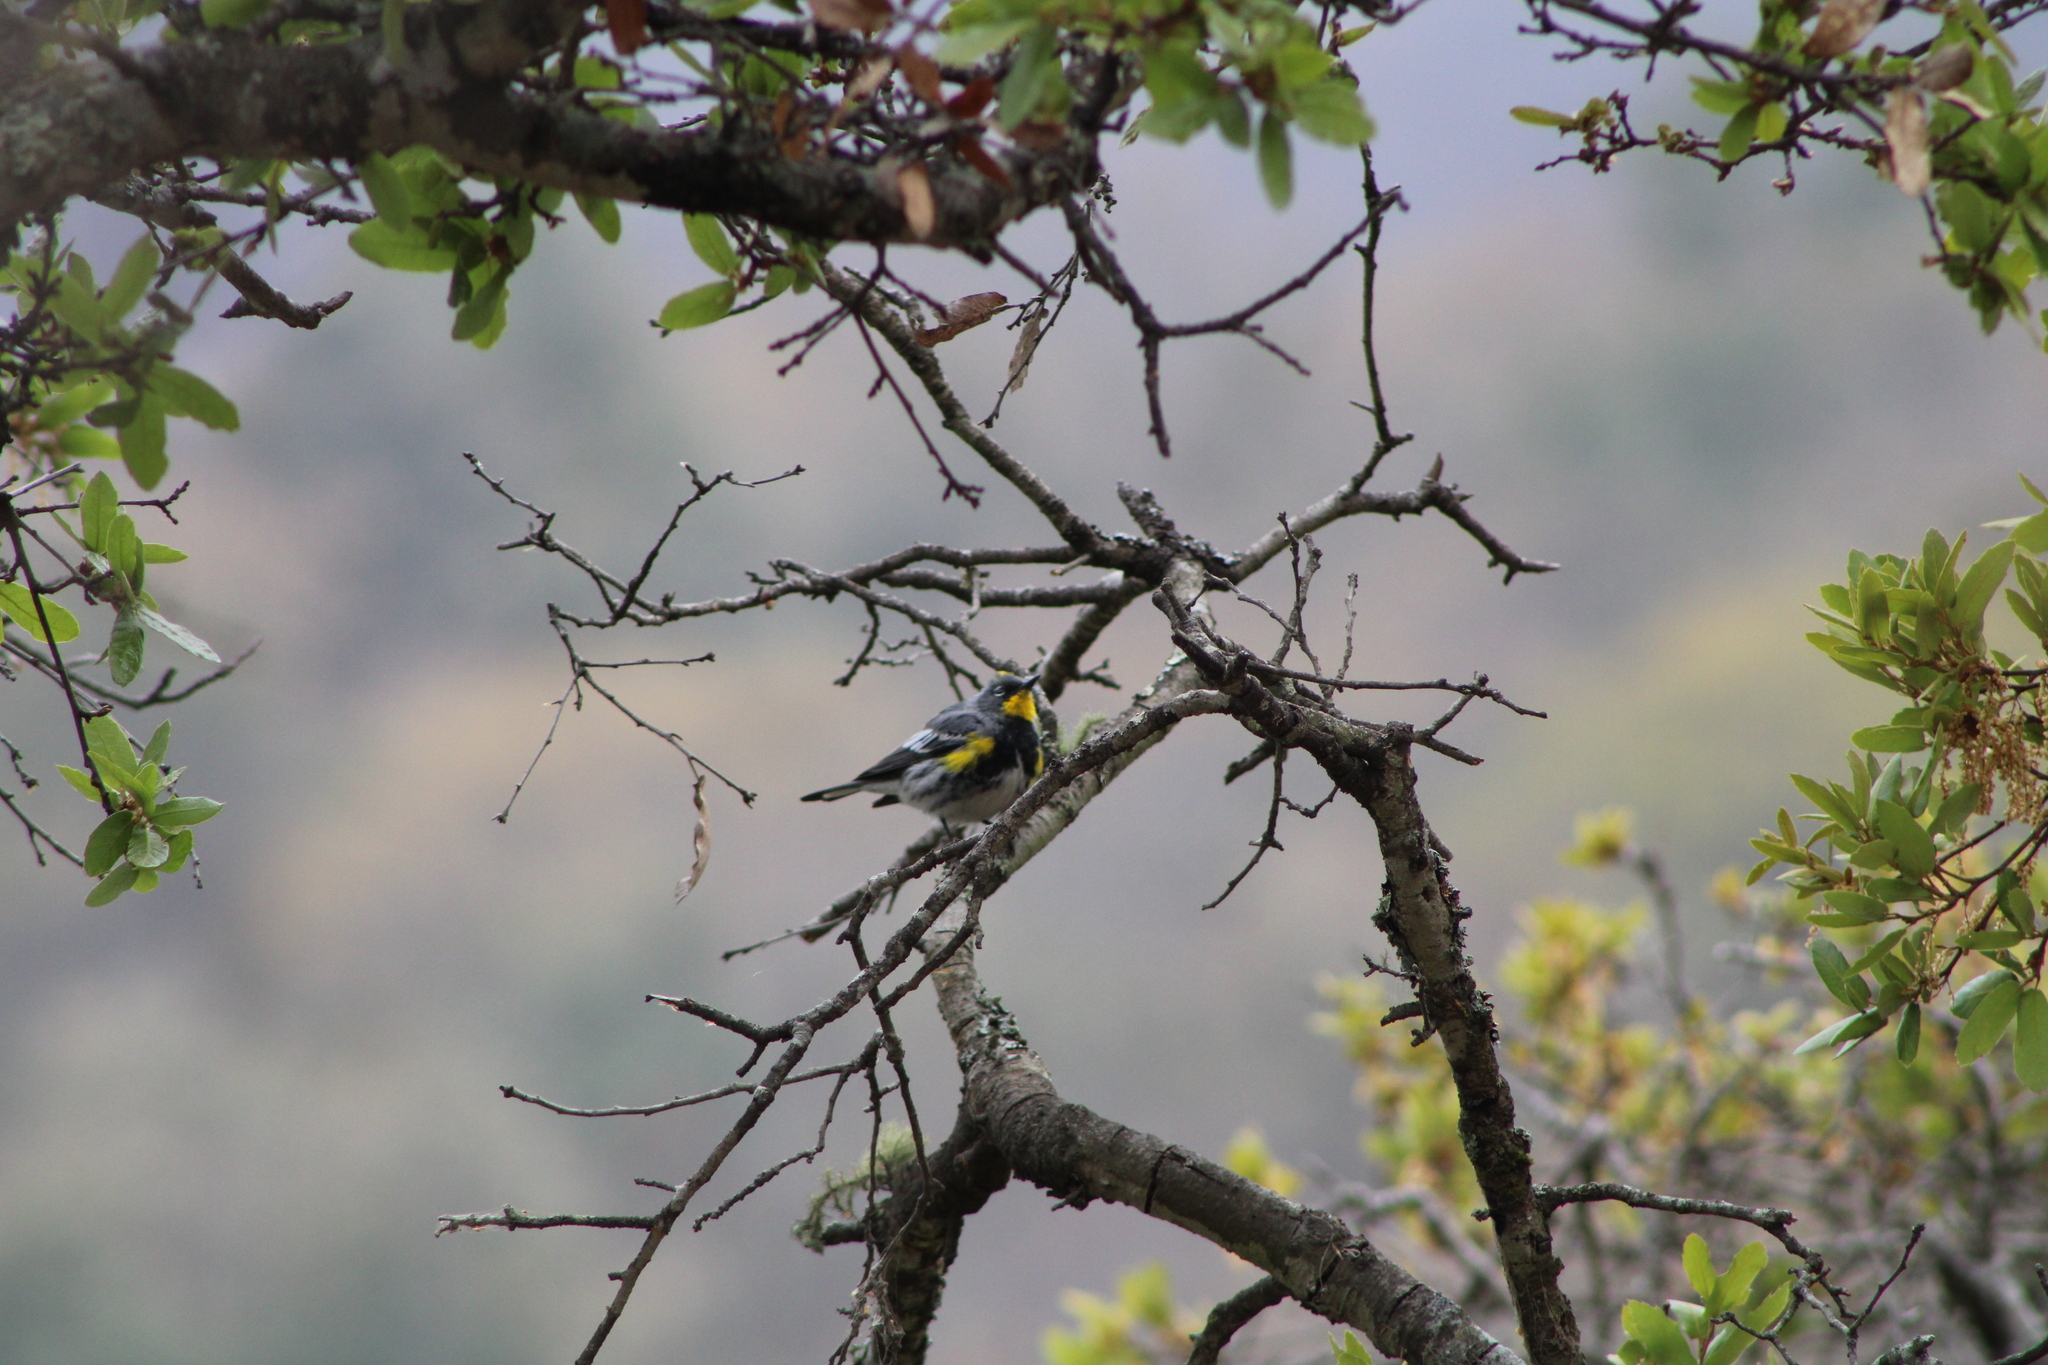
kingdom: Animalia
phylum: Chordata
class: Aves
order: Passeriformes
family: Parulidae
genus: Setophaga
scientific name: Setophaga coronata
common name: Myrtle warbler
